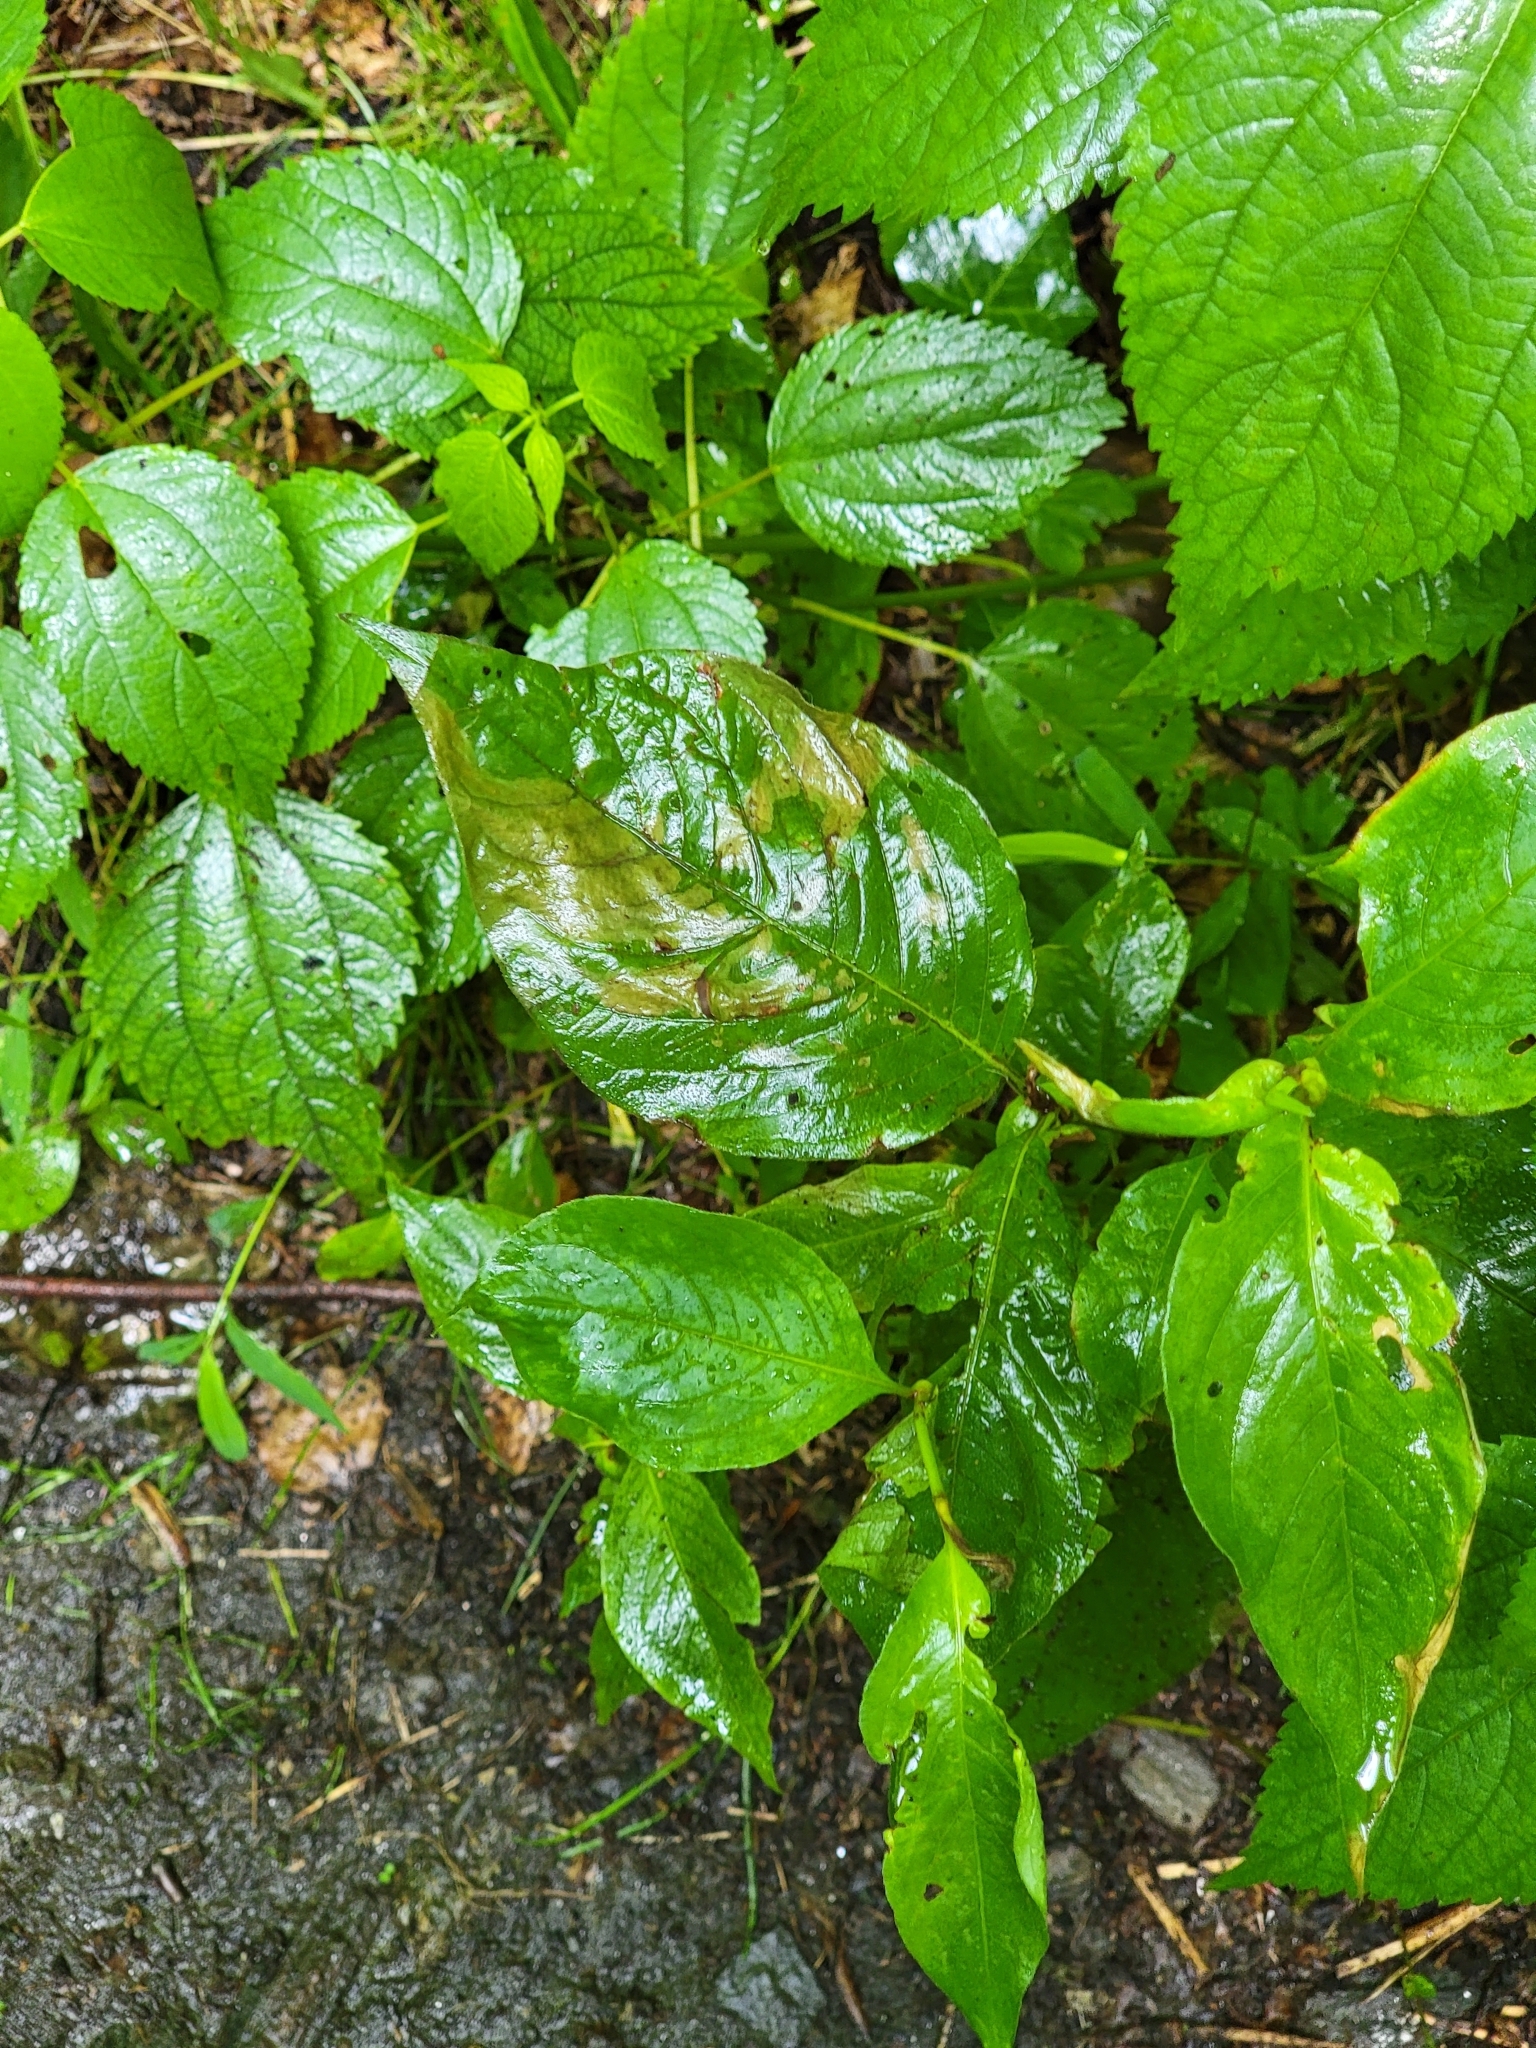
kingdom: Plantae
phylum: Tracheophyta
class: Magnoliopsida
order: Caryophyllales
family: Polygonaceae
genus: Persicaria
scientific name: Persicaria virginiana
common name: Jumpseed
